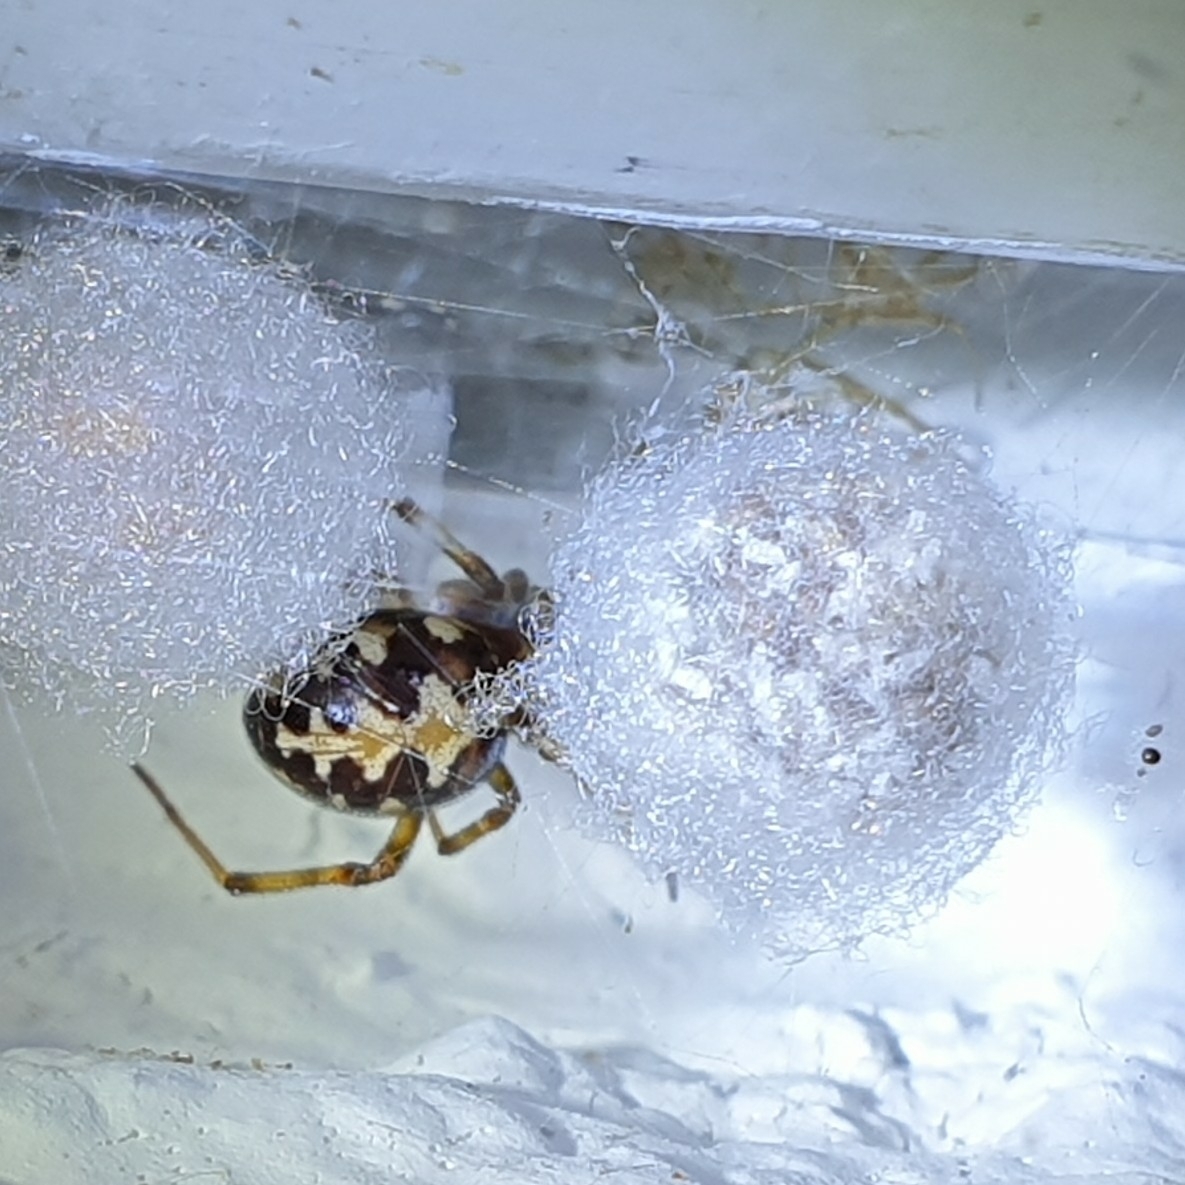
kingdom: Animalia
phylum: Arthropoda
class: Arachnida
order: Araneae
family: Theridiidae
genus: Steatoda
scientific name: Steatoda triangulosa
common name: Triangulate bud spider
